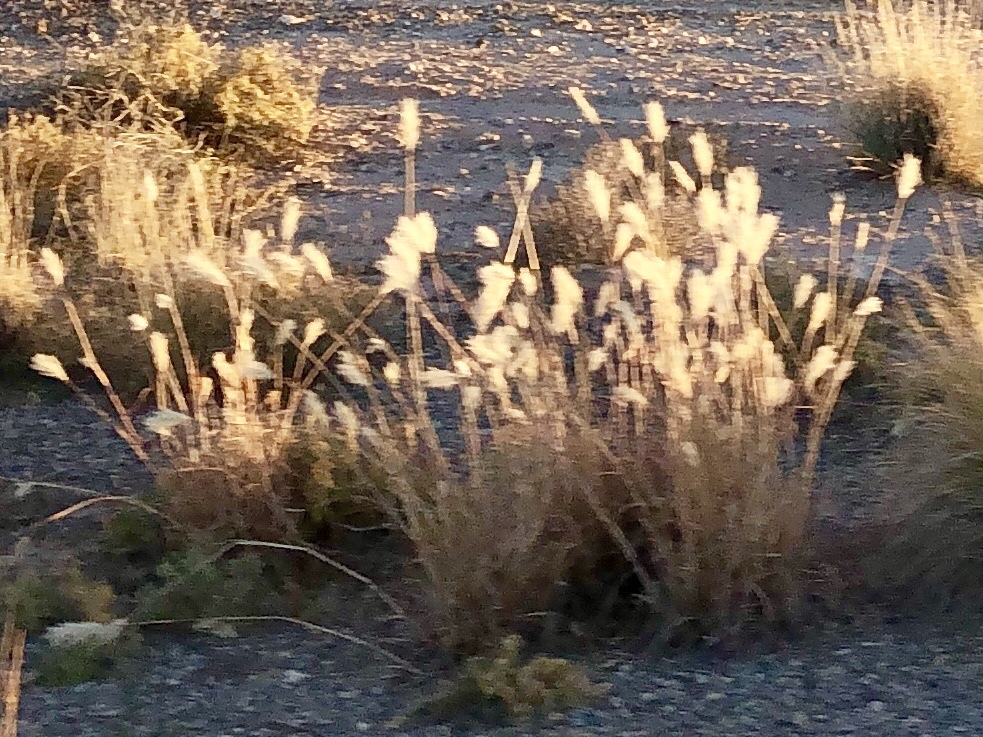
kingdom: Plantae
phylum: Tracheophyta
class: Liliopsida
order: Poales
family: Poaceae
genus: Bothriochloa
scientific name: Bothriochloa barbinodis
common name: Cane bluestem
